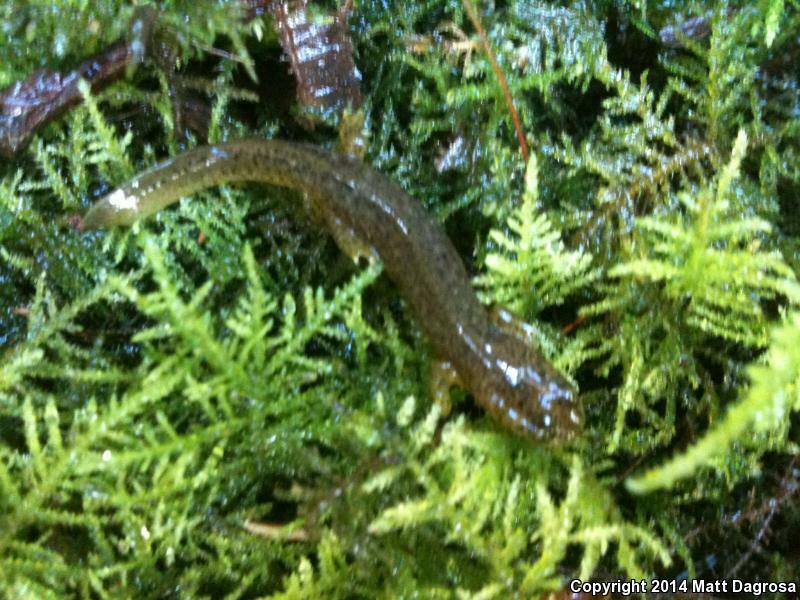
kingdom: Animalia
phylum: Chordata
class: Amphibia
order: Caudata
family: Rhyacotritonidae
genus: Rhyacotriton
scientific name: Rhyacotriton variegatus
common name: Southern torrent salamander
